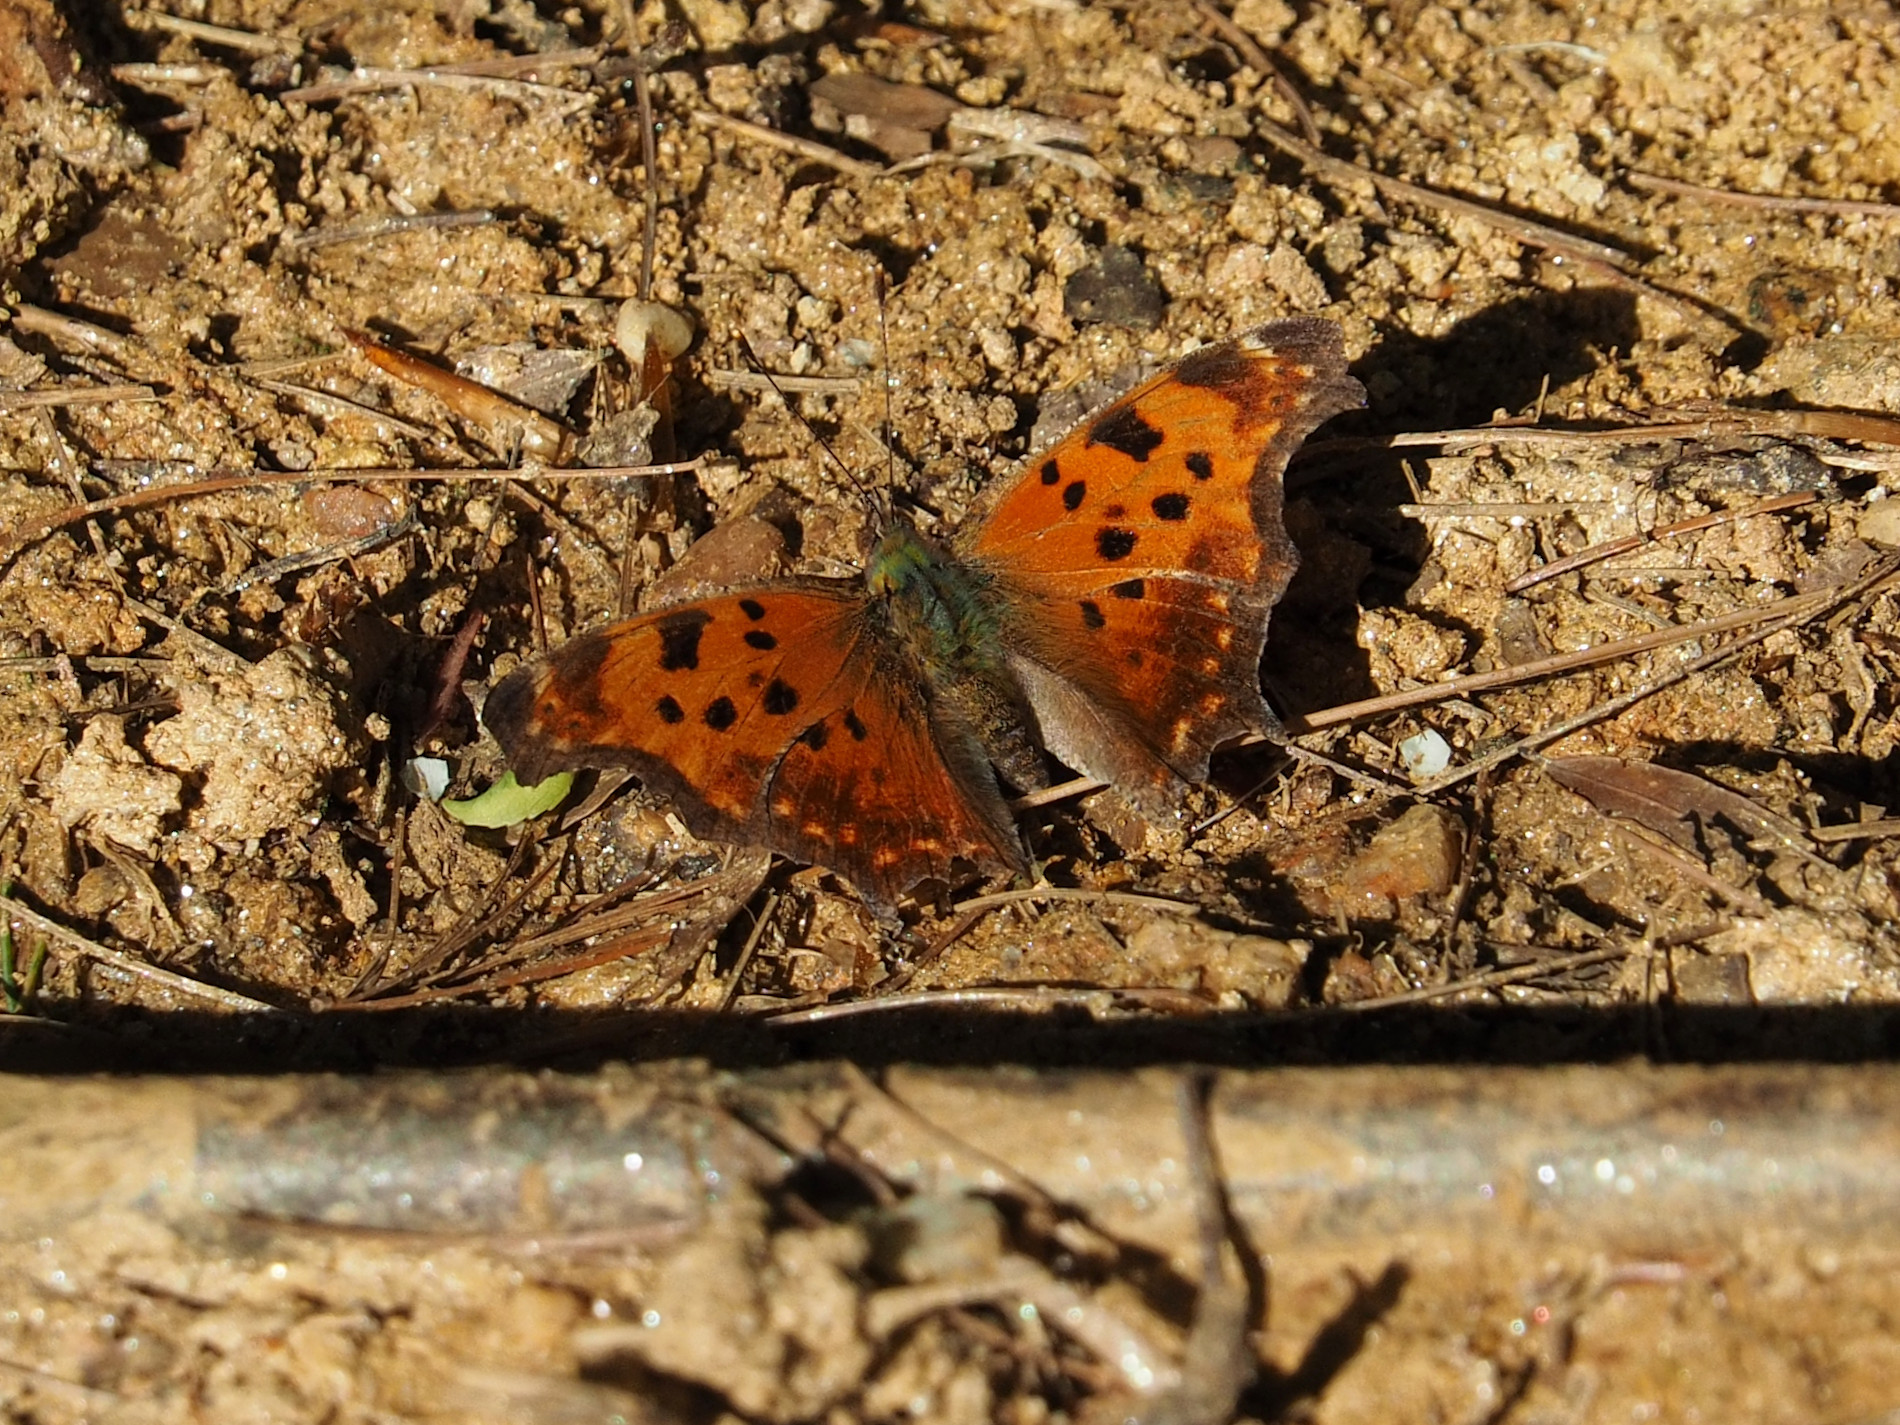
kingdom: Animalia
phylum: Arthropoda
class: Insecta
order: Lepidoptera
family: Nymphalidae
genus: Polygonia
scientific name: Polygonia comma
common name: Eastern comma
